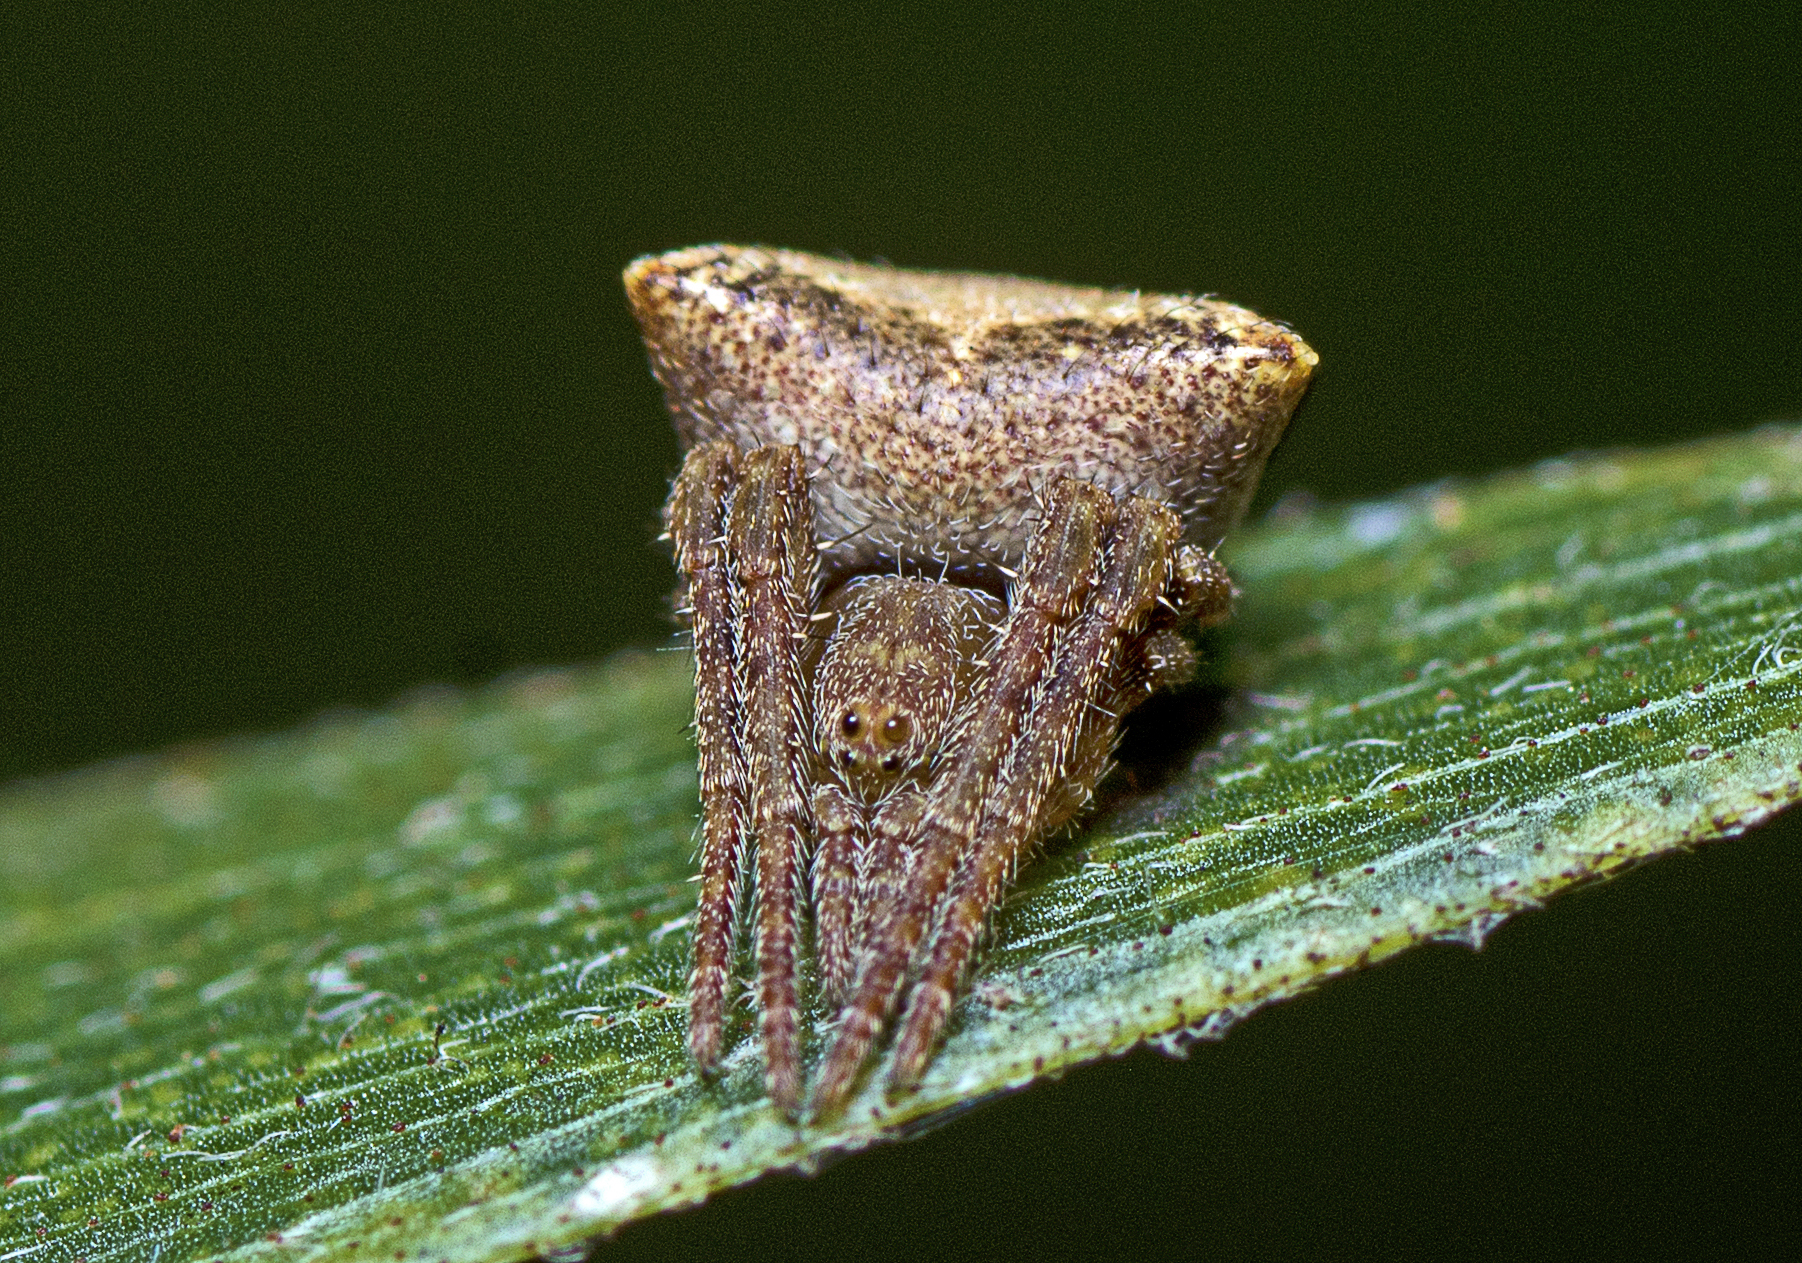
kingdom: Animalia
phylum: Arthropoda
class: Arachnida
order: Araneae
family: Araneidae
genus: Araneus
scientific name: Araneus arenaceus
